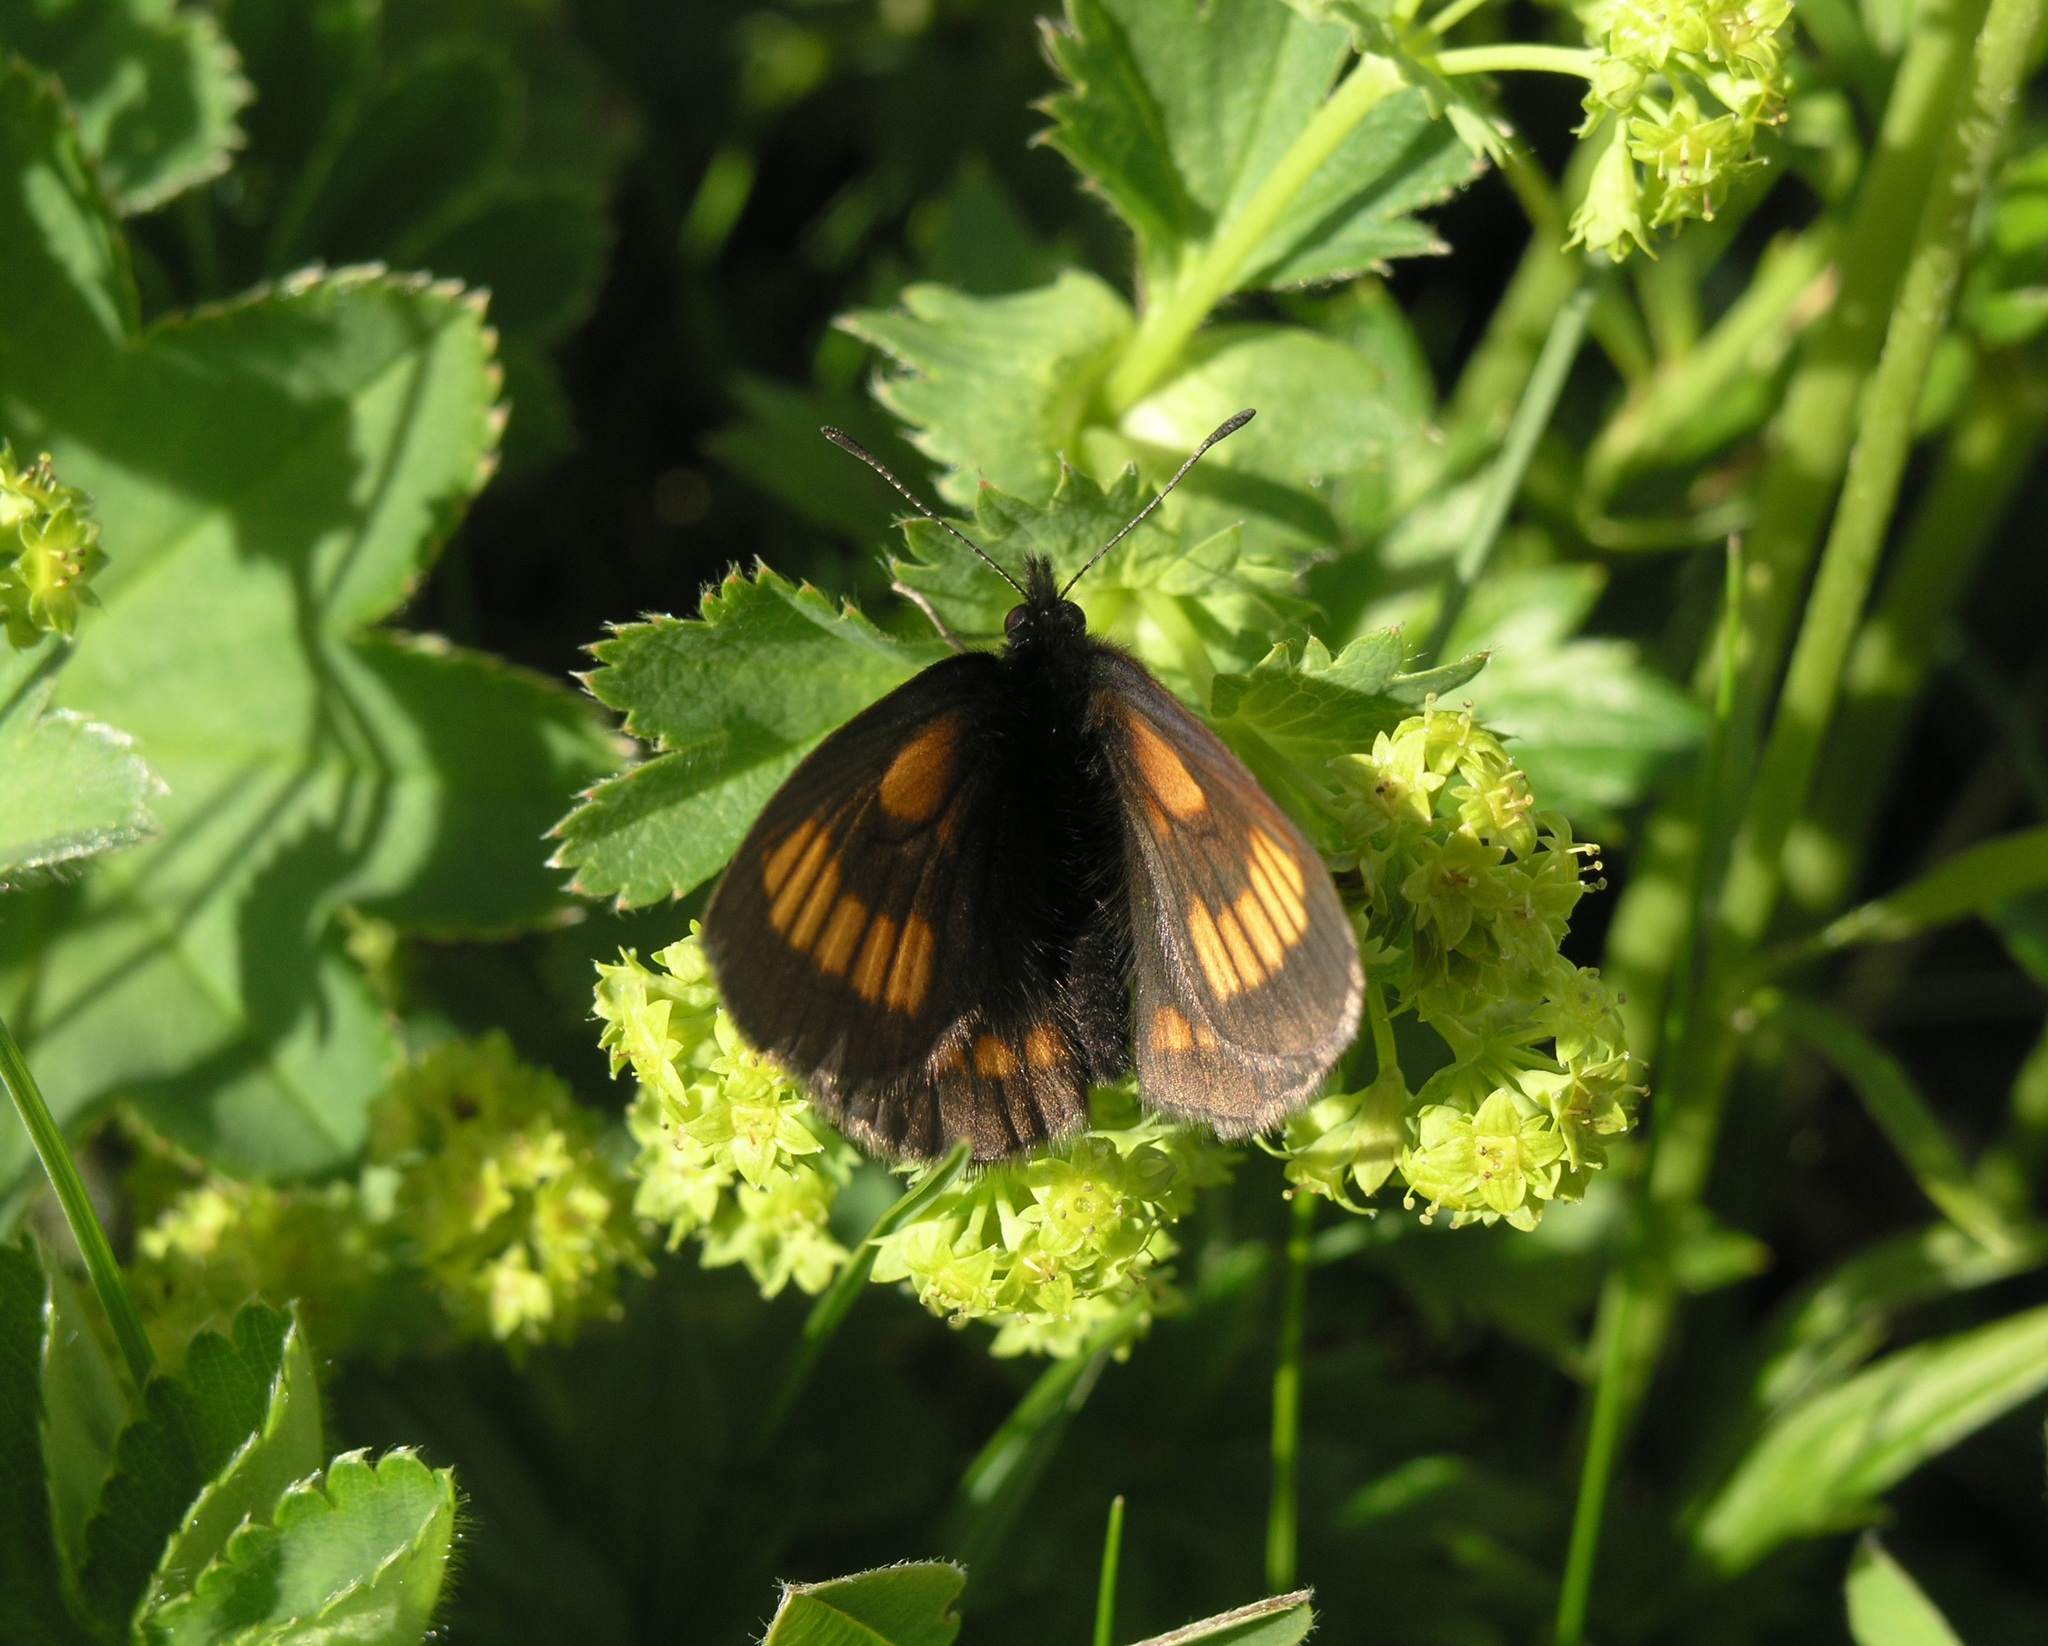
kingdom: Animalia
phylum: Arthropoda
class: Insecta
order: Lepidoptera
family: Nymphalidae
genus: Erebia
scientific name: Erebia maurisius
